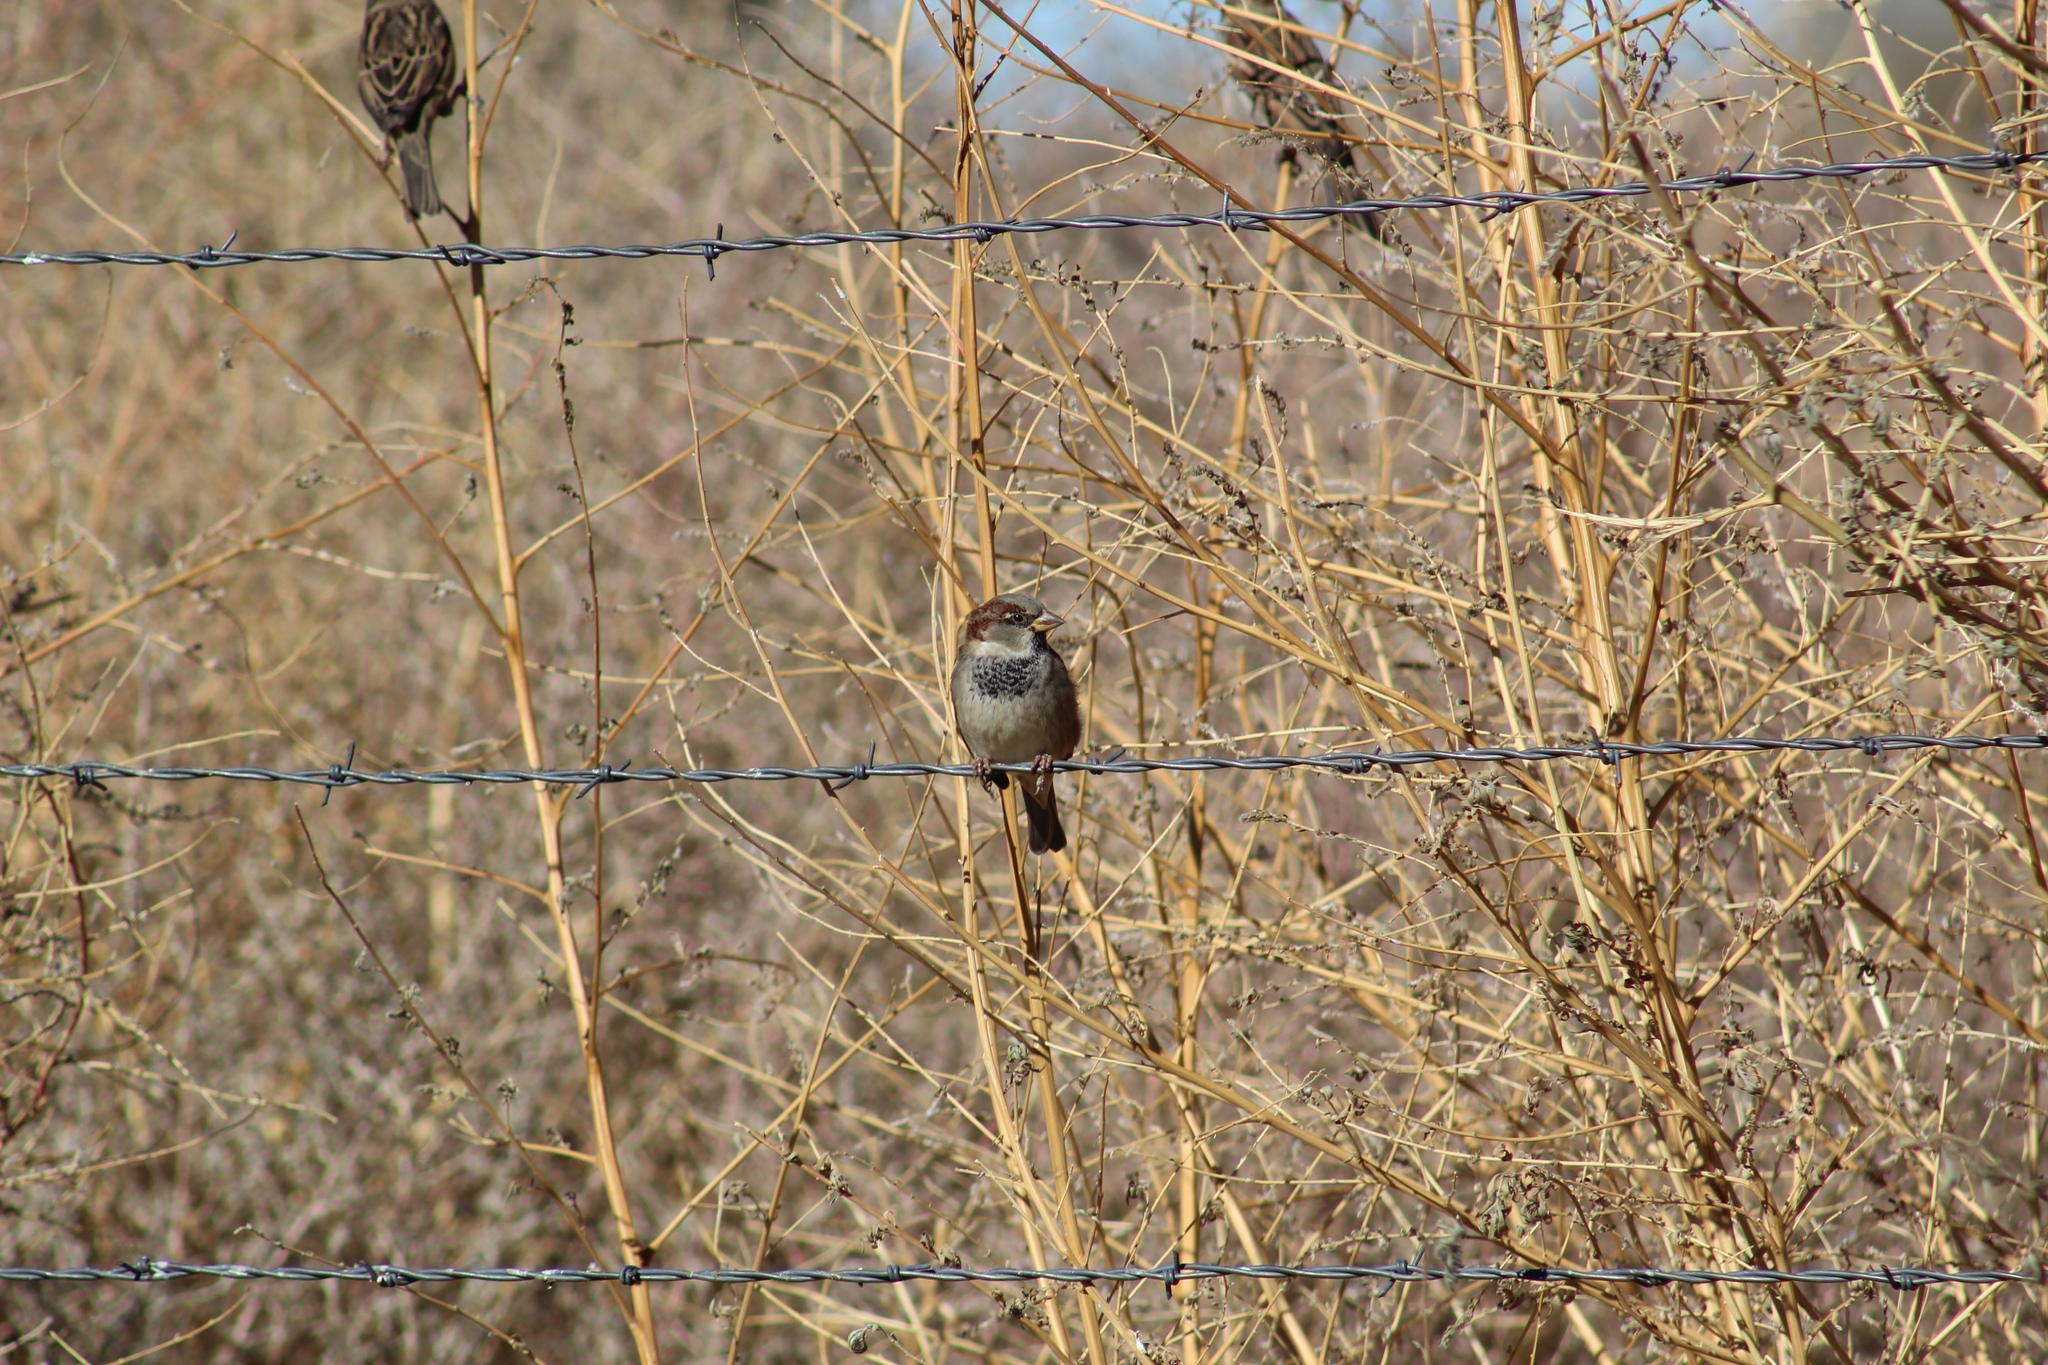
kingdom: Animalia
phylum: Chordata
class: Aves
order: Passeriformes
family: Passeridae
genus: Passer
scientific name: Passer domesticus
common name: House sparrow
